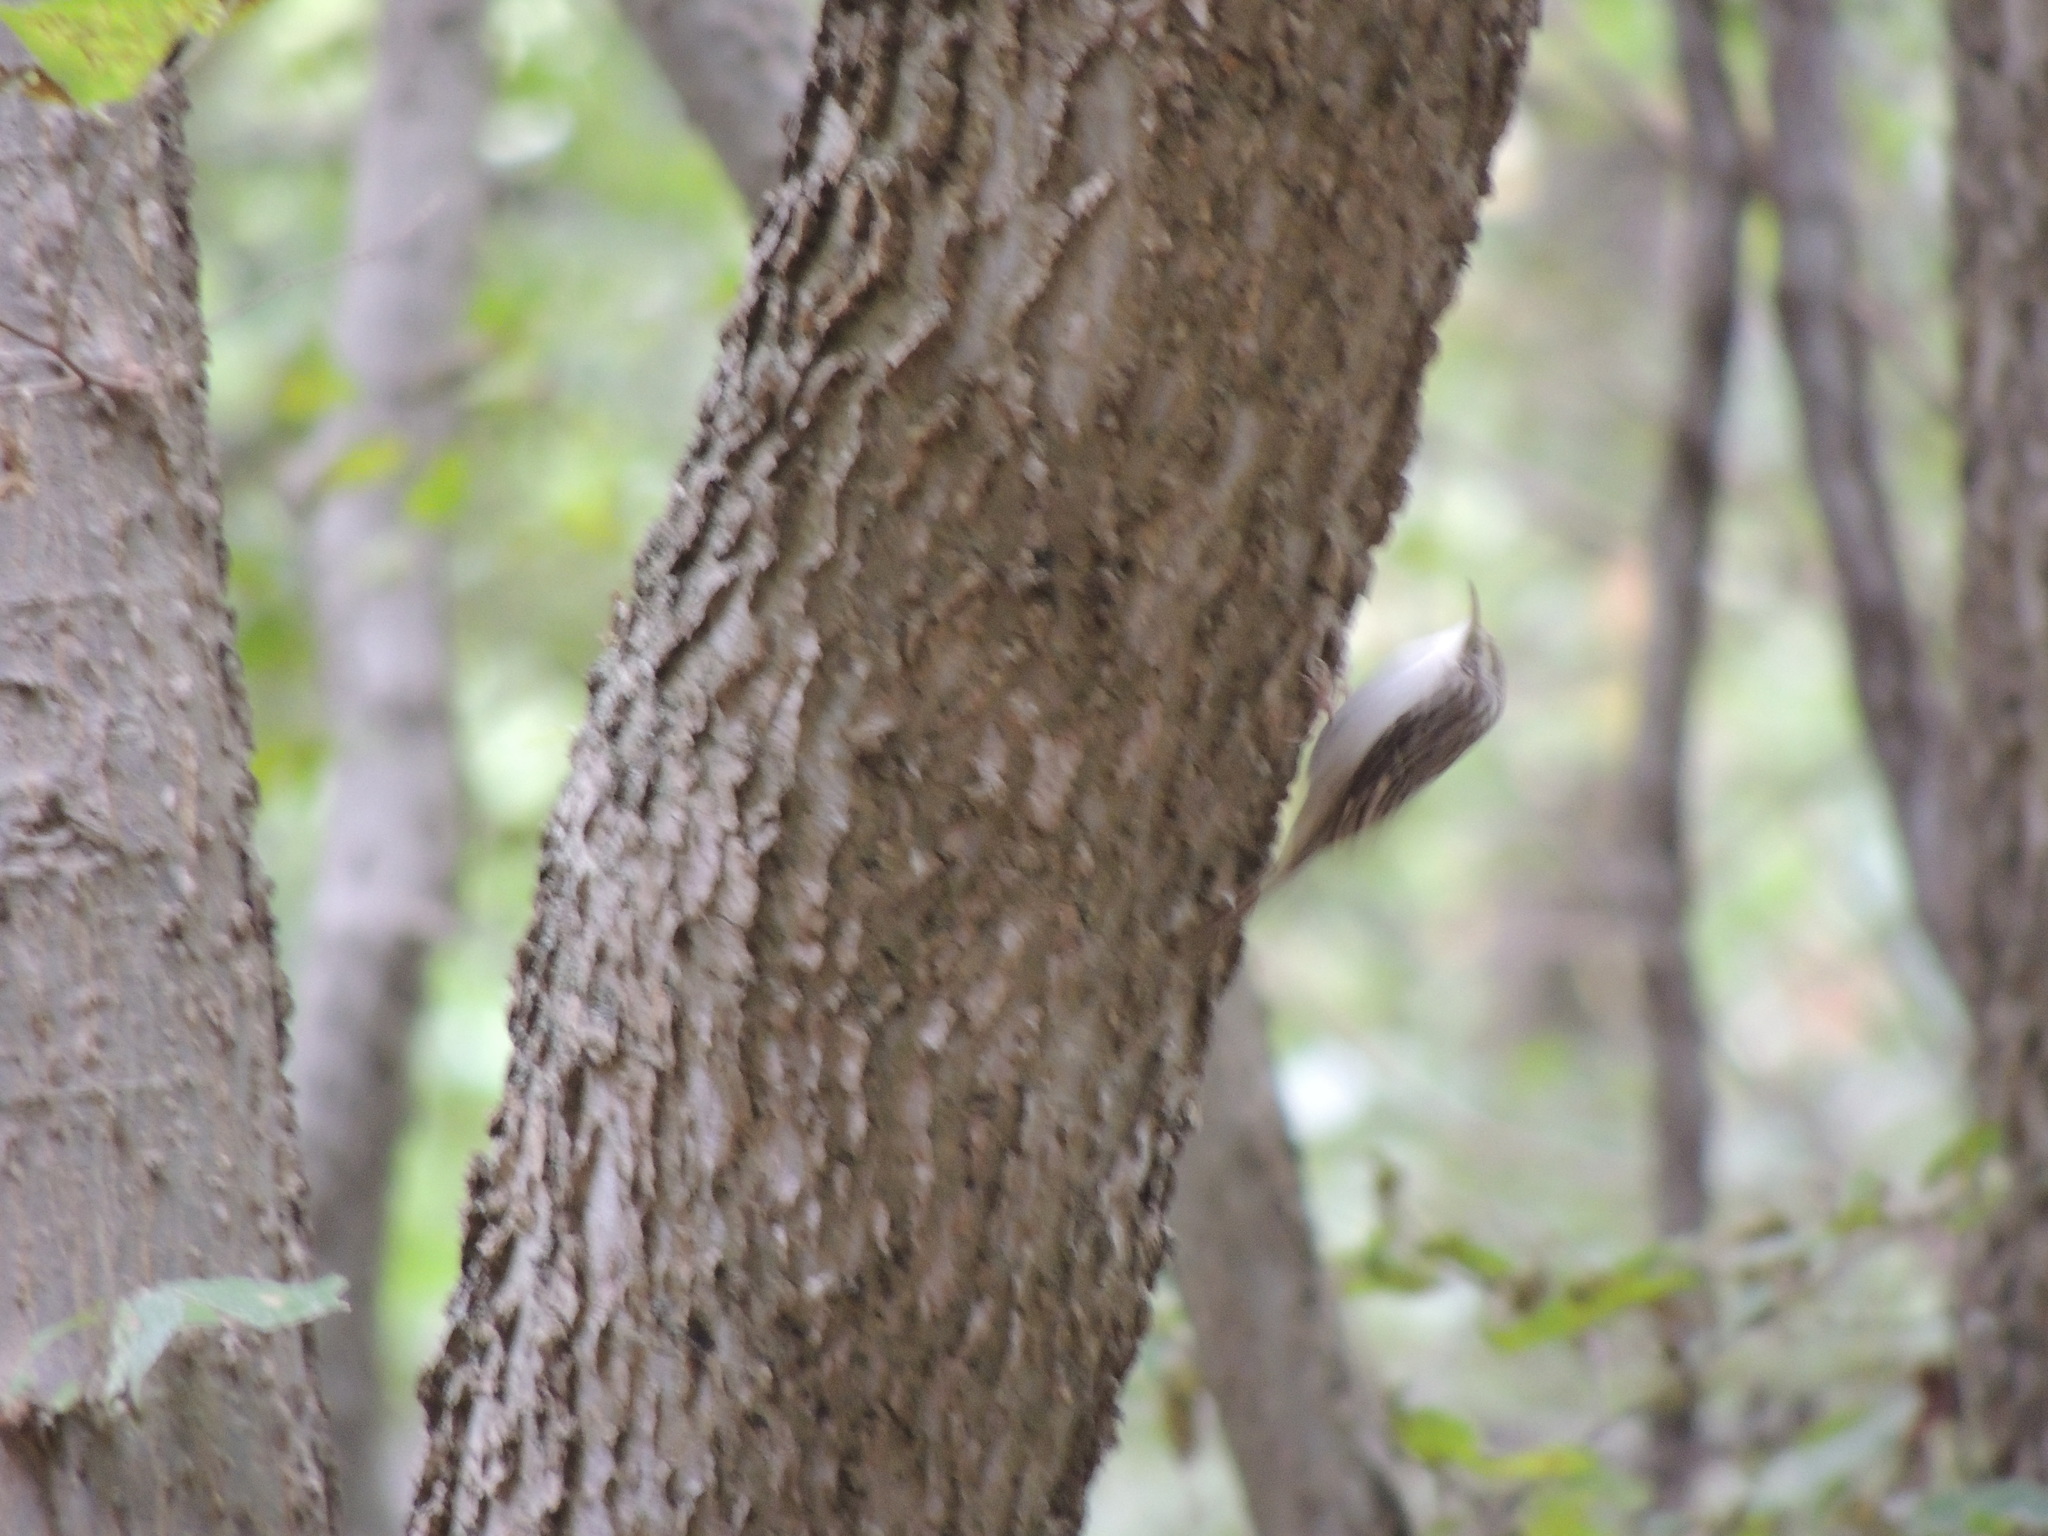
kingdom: Animalia
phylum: Chordata
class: Aves
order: Passeriformes
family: Certhiidae
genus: Certhia
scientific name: Certhia americana
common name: Brown creeper
